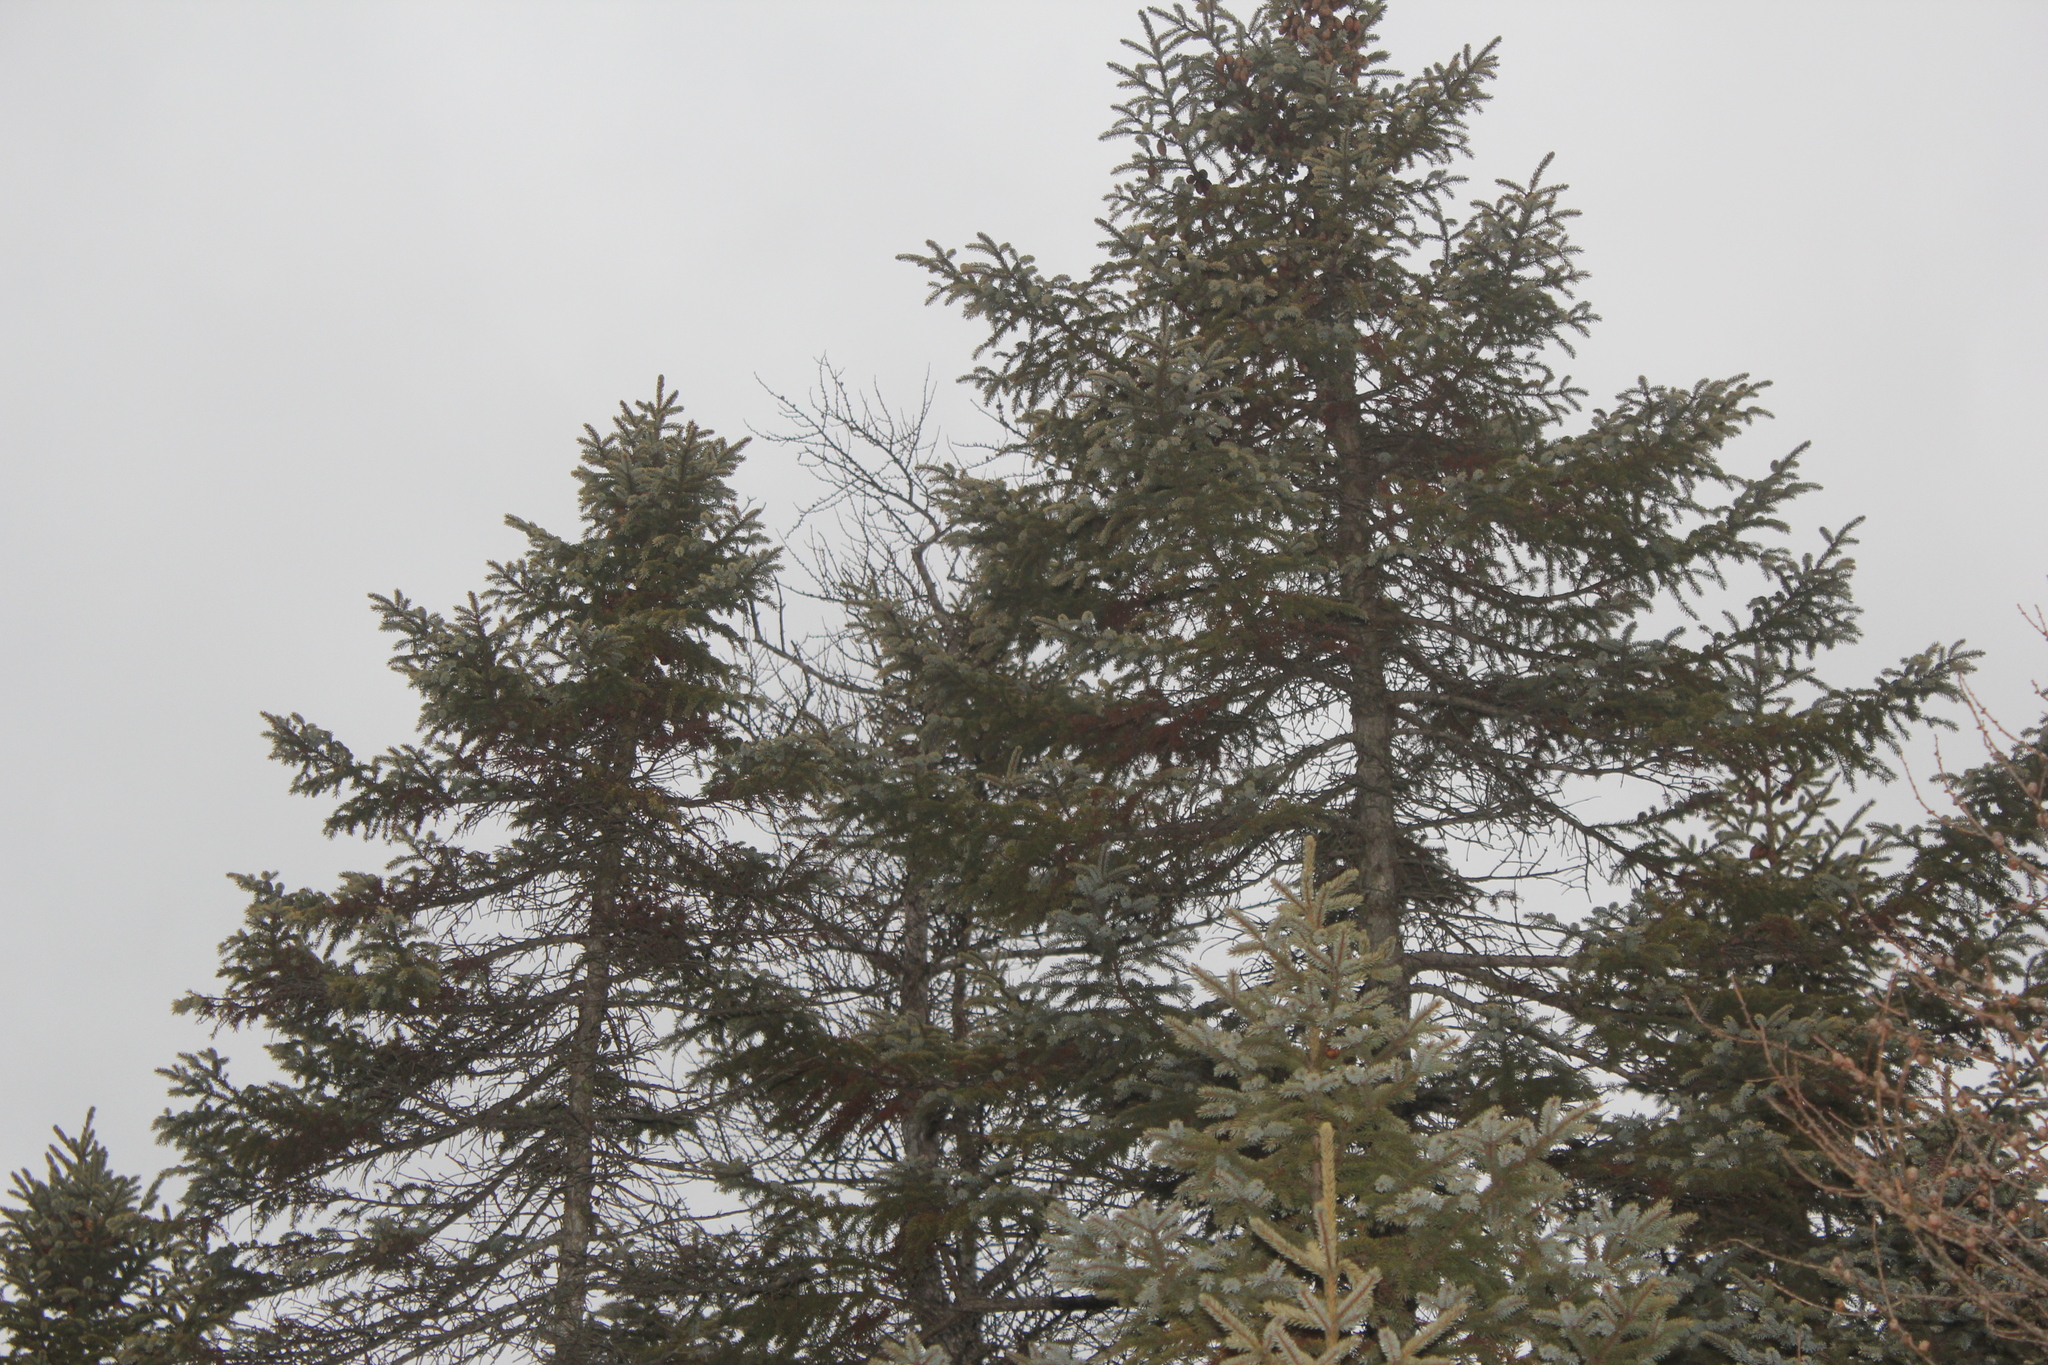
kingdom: Plantae
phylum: Tracheophyta
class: Pinopsida
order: Pinales
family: Pinaceae
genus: Picea
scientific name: Picea mariana
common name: Black spruce
